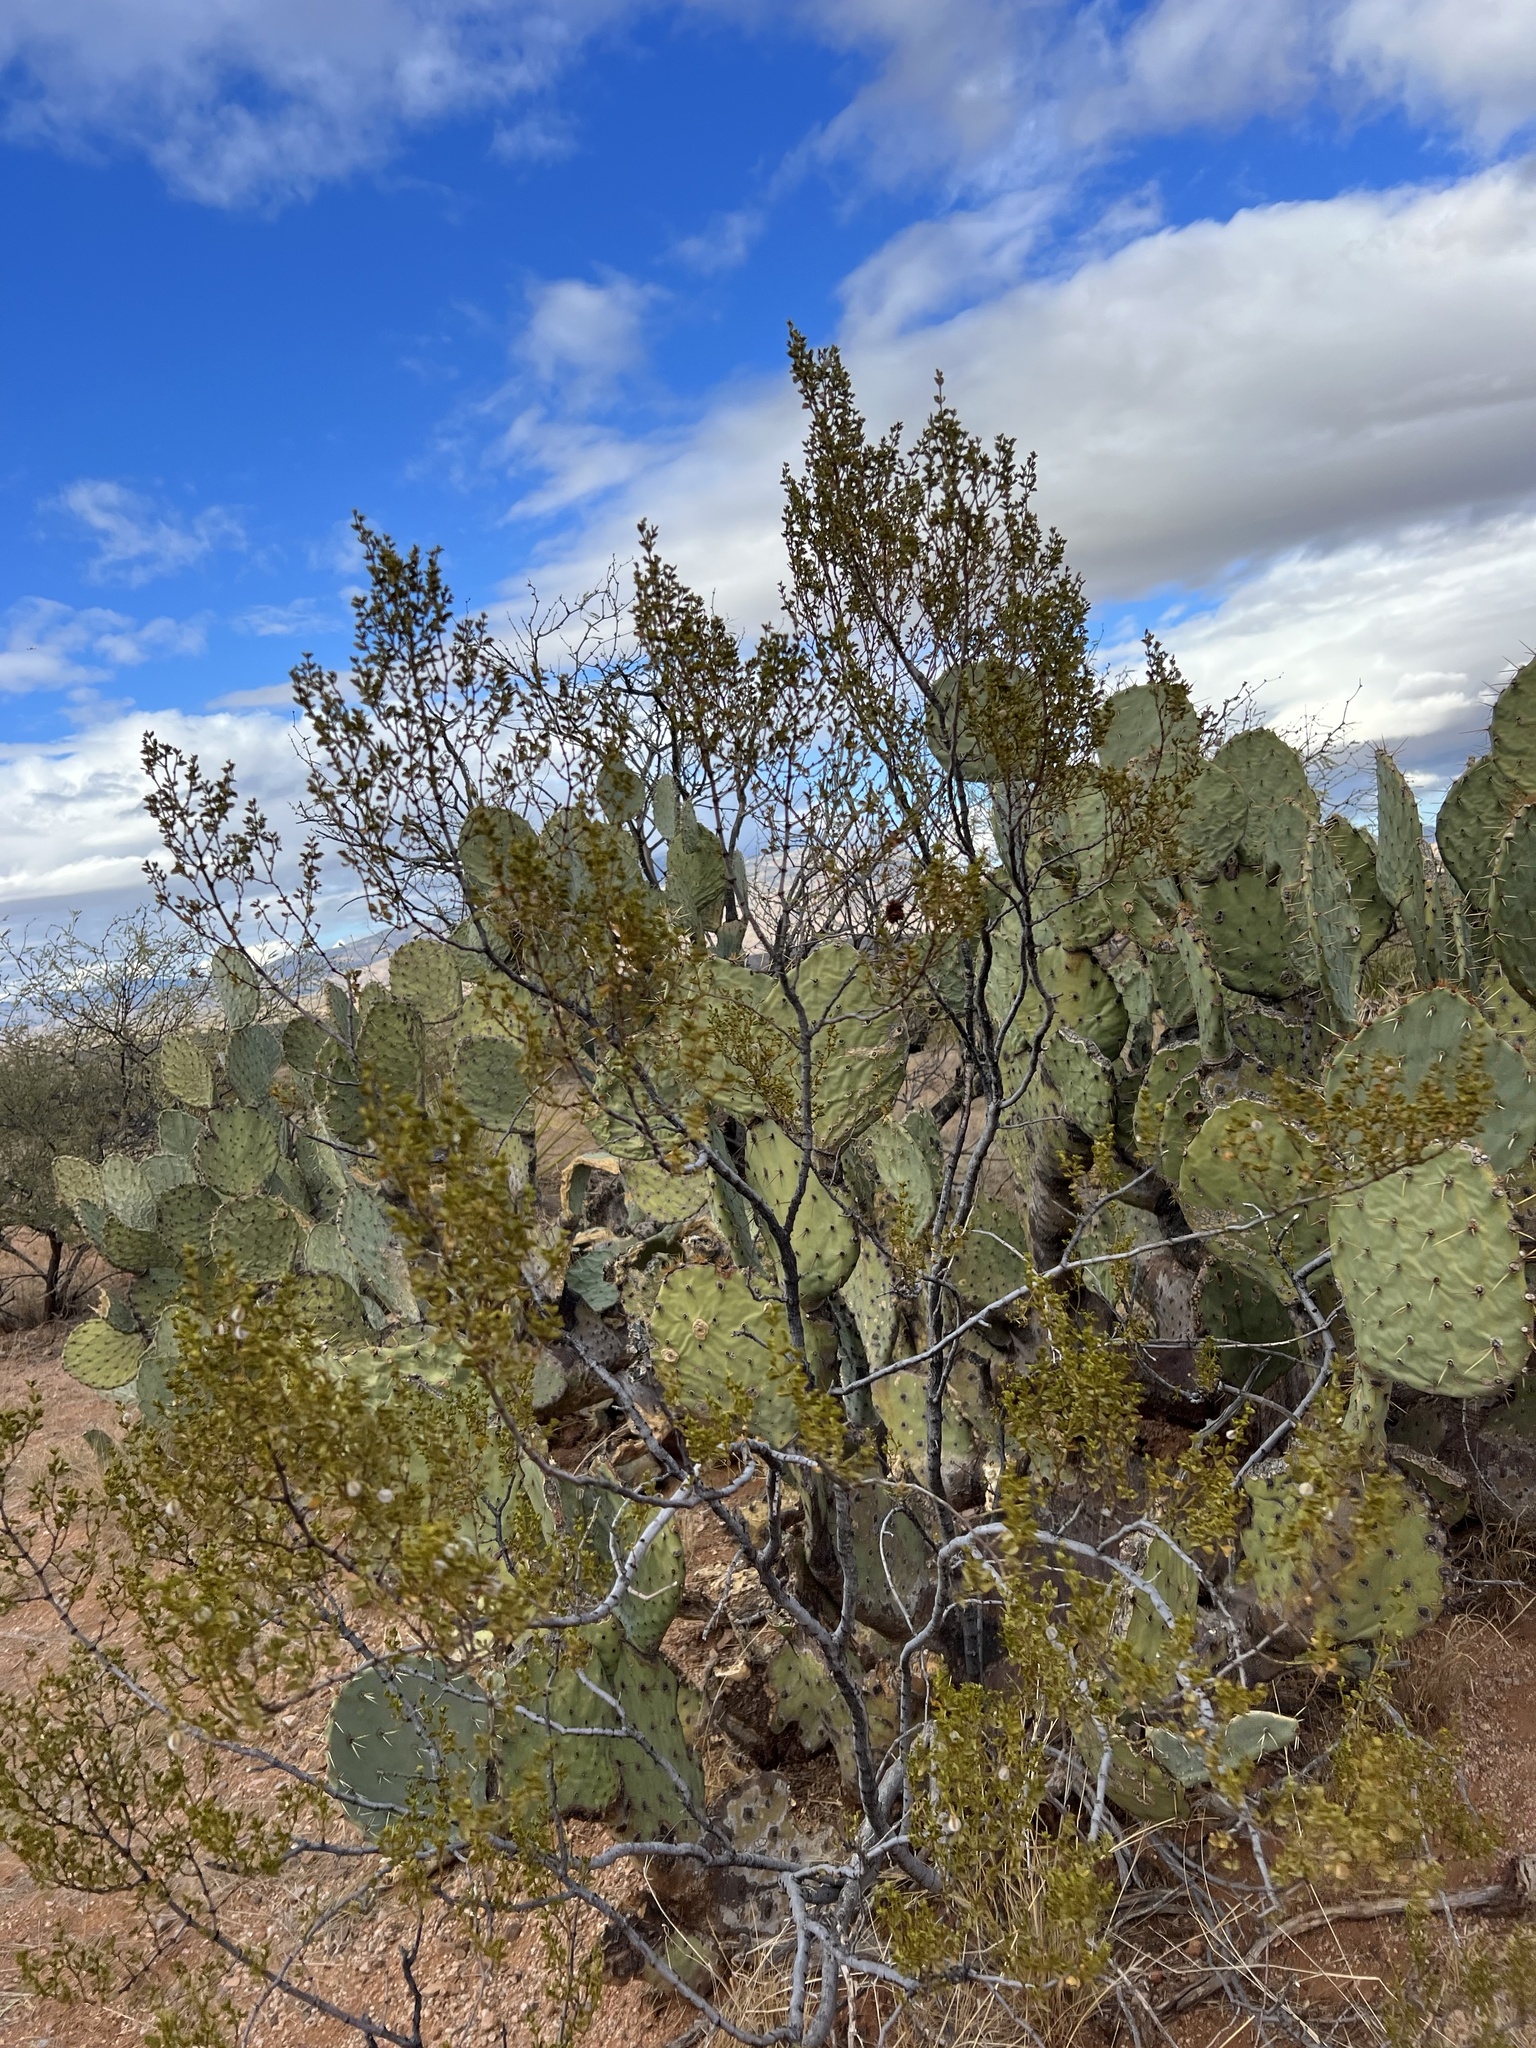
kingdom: Plantae
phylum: Tracheophyta
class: Magnoliopsida
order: Zygophyllales
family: Zygophyllaceae
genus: Larrea
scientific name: Larrea tridentata
